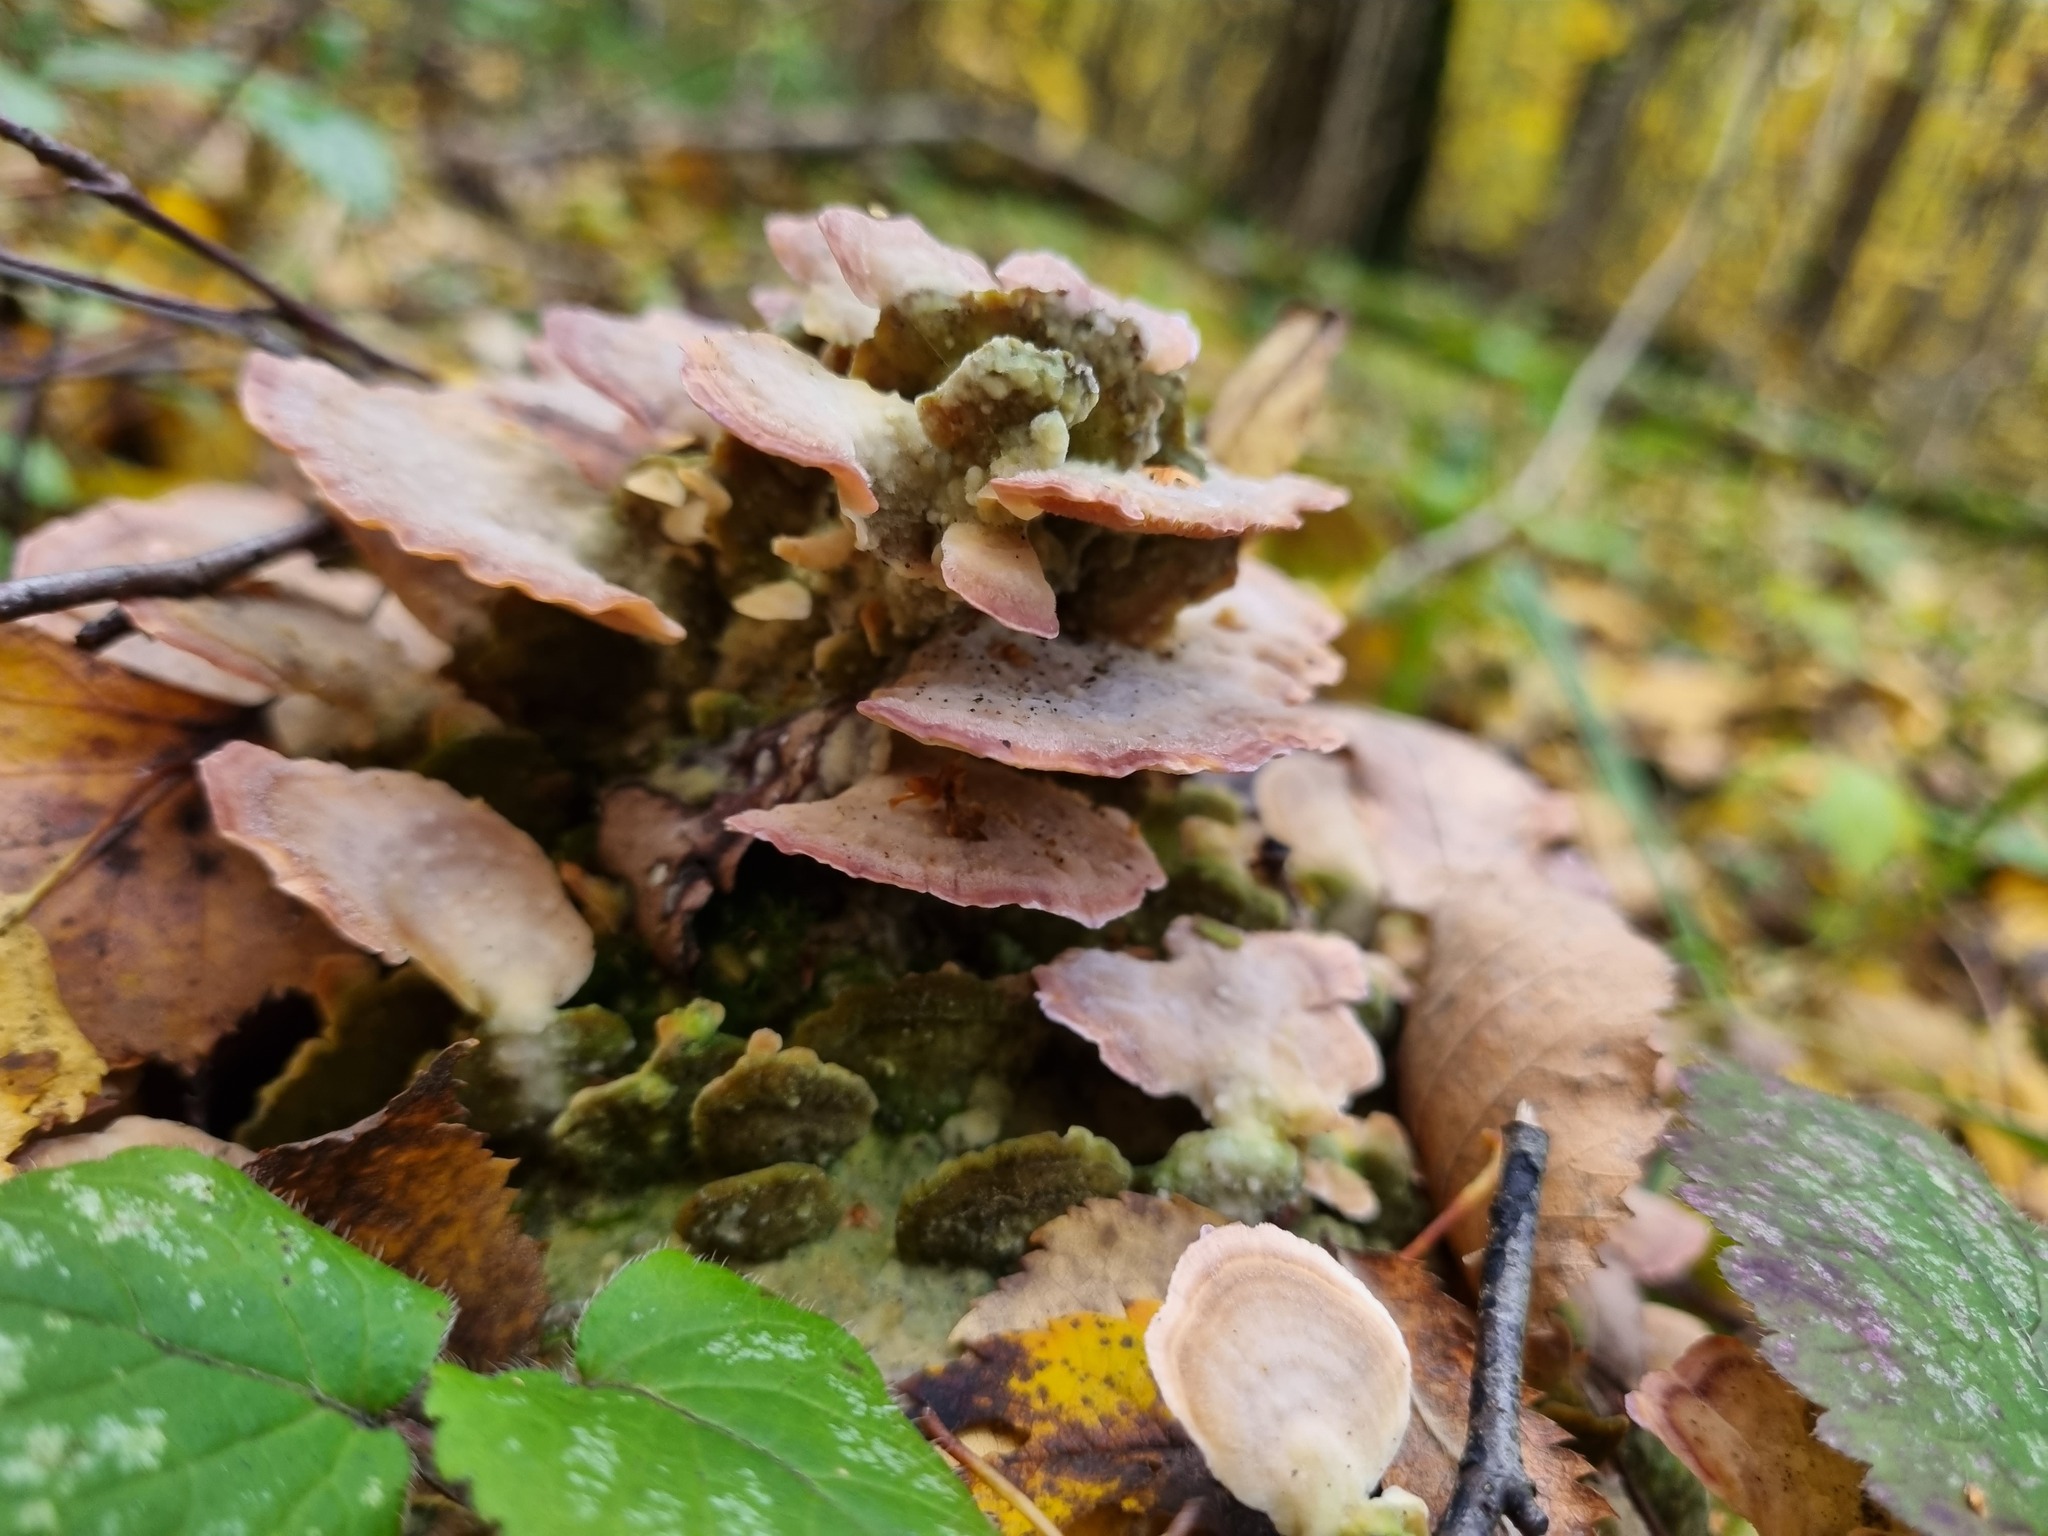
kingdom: Fungi
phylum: Basidiomycota
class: Agaricomycetes
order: Hymenochaetales
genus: Trichaptum
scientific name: Trichaptum biforme
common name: Violet-toothed polypore
